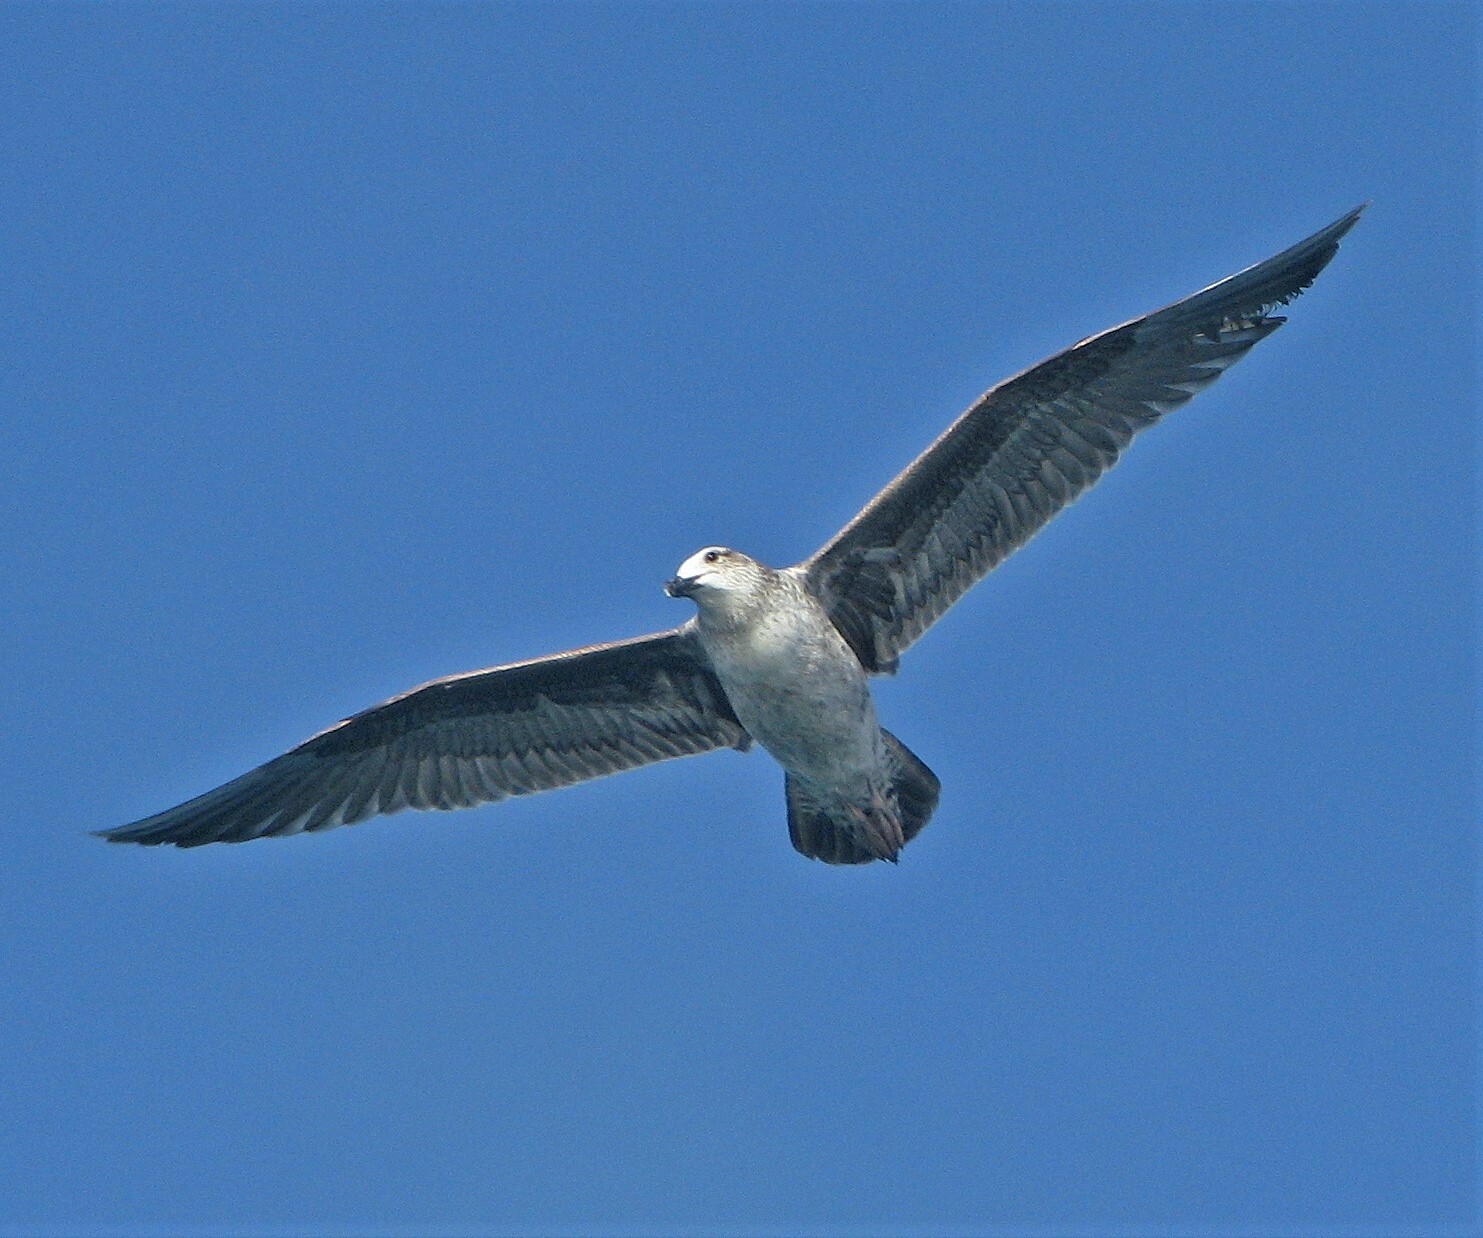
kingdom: Animalia
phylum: Chordata
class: Aves
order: Charadriiformes
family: Laridae
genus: Larus
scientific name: Larus dominicanus
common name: Kelp gull
